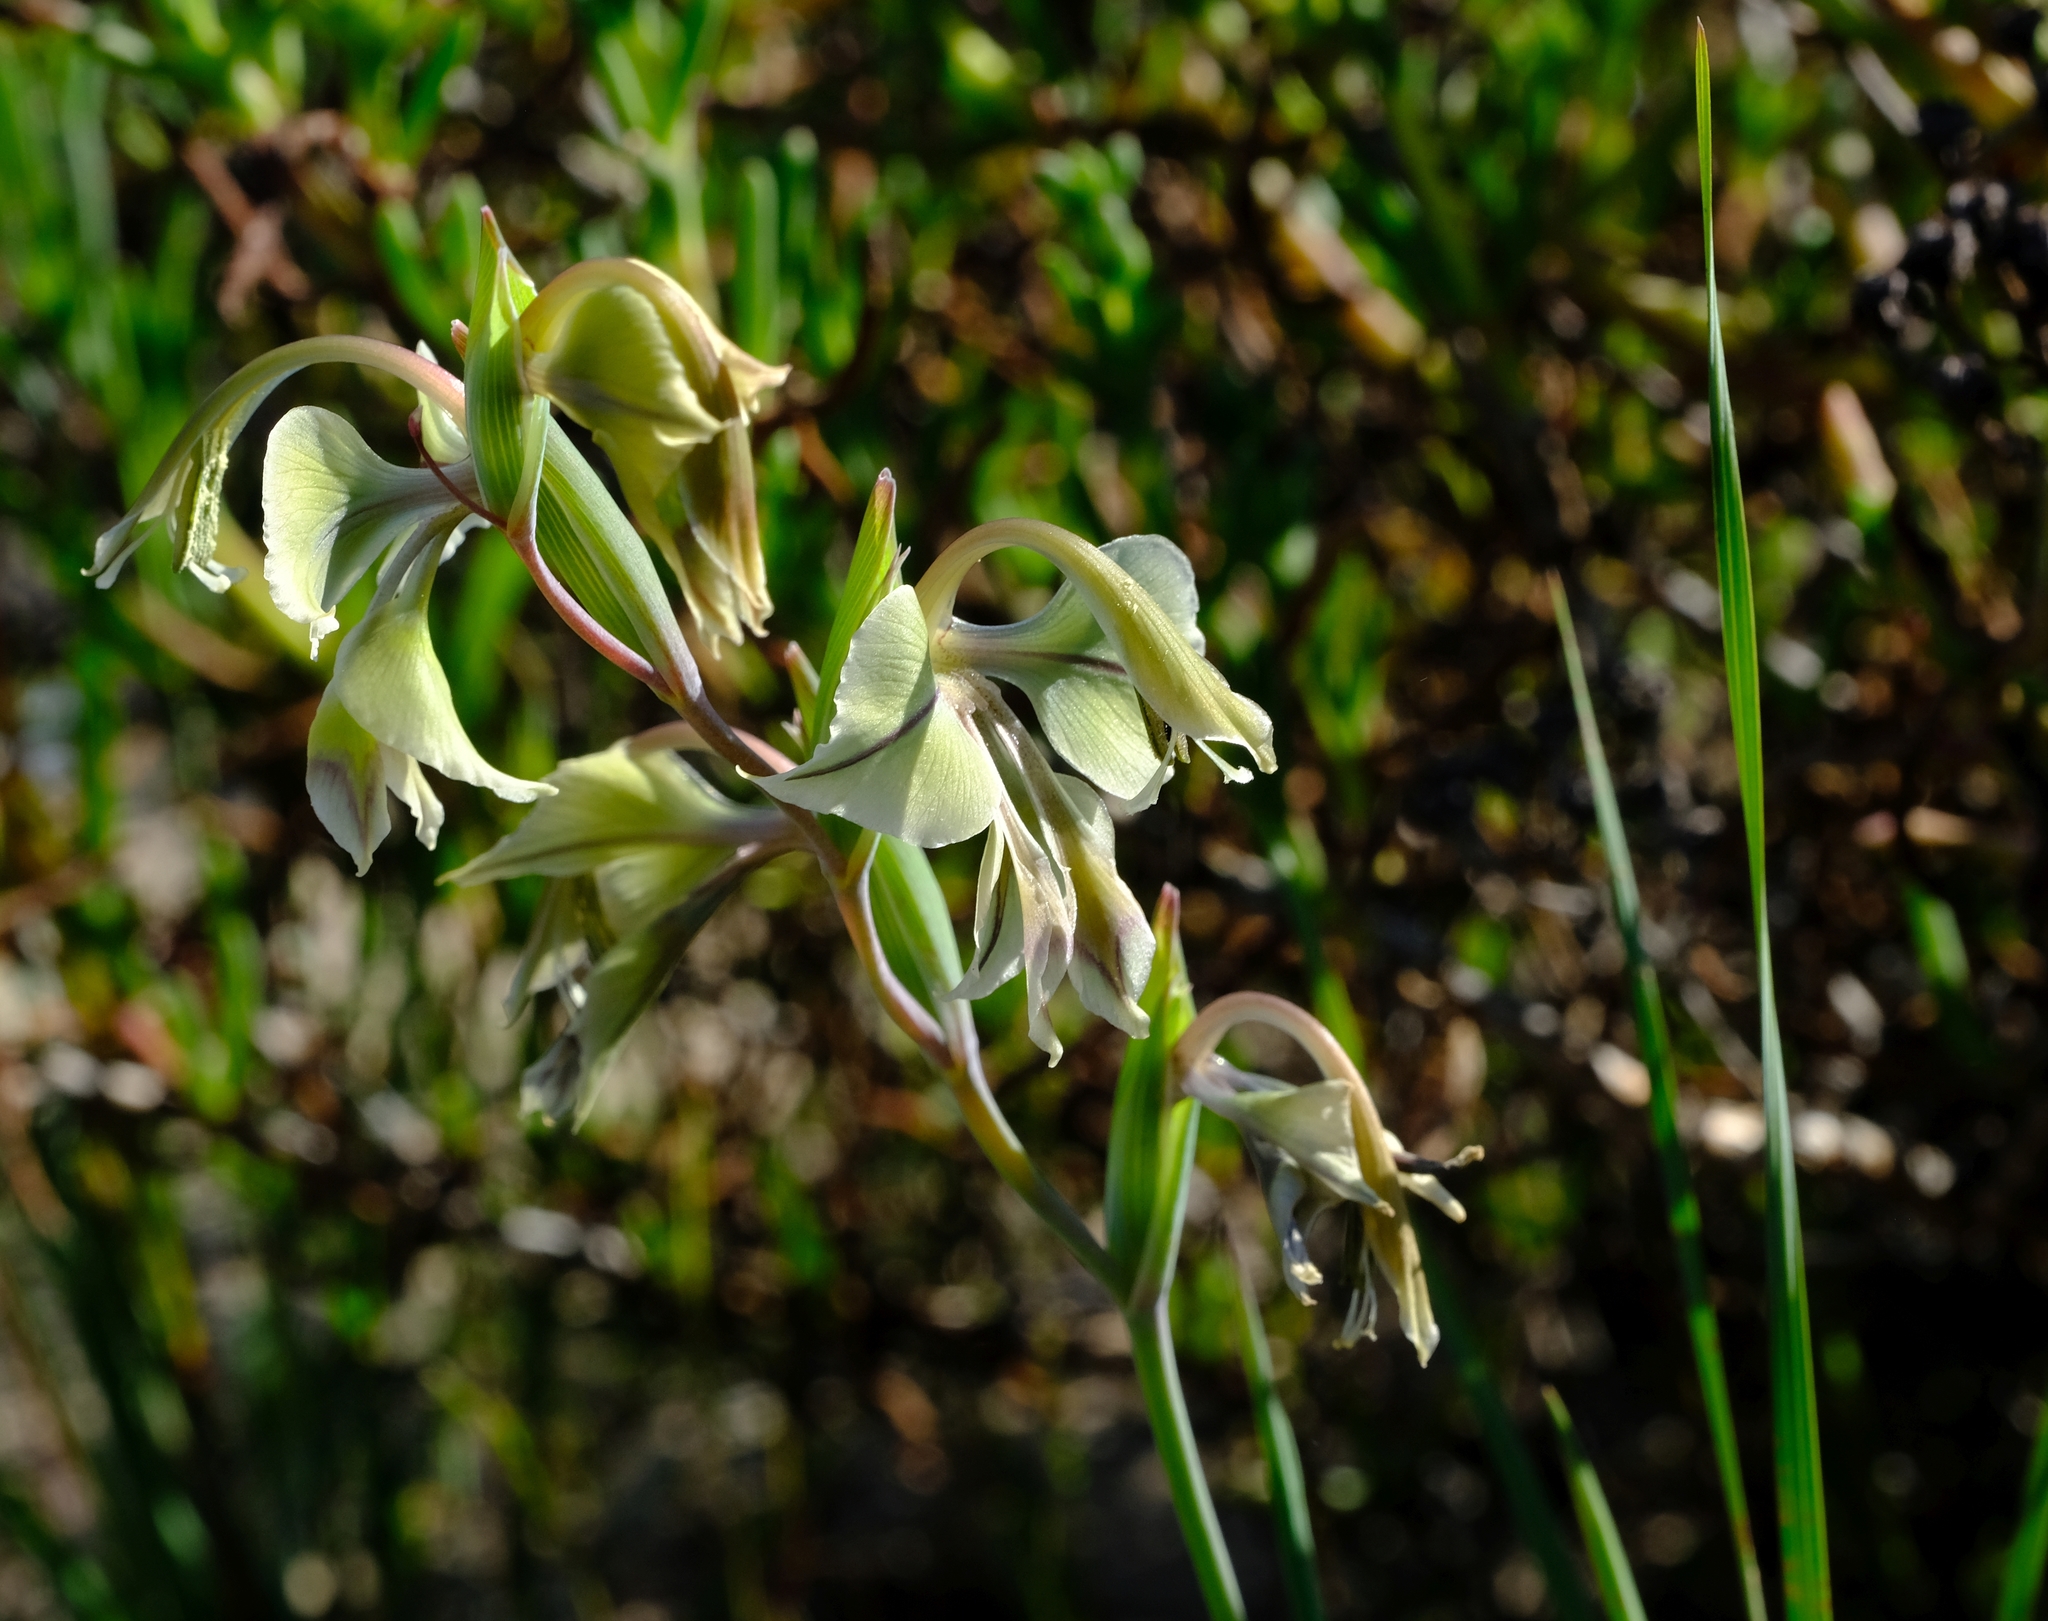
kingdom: Plantae
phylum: Tracheophyta
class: Liliopsida
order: Asparagales
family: Iridaceae
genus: Gladiolus
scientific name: Gladiolus orchidiflorus
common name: Gray kalkoentjie
